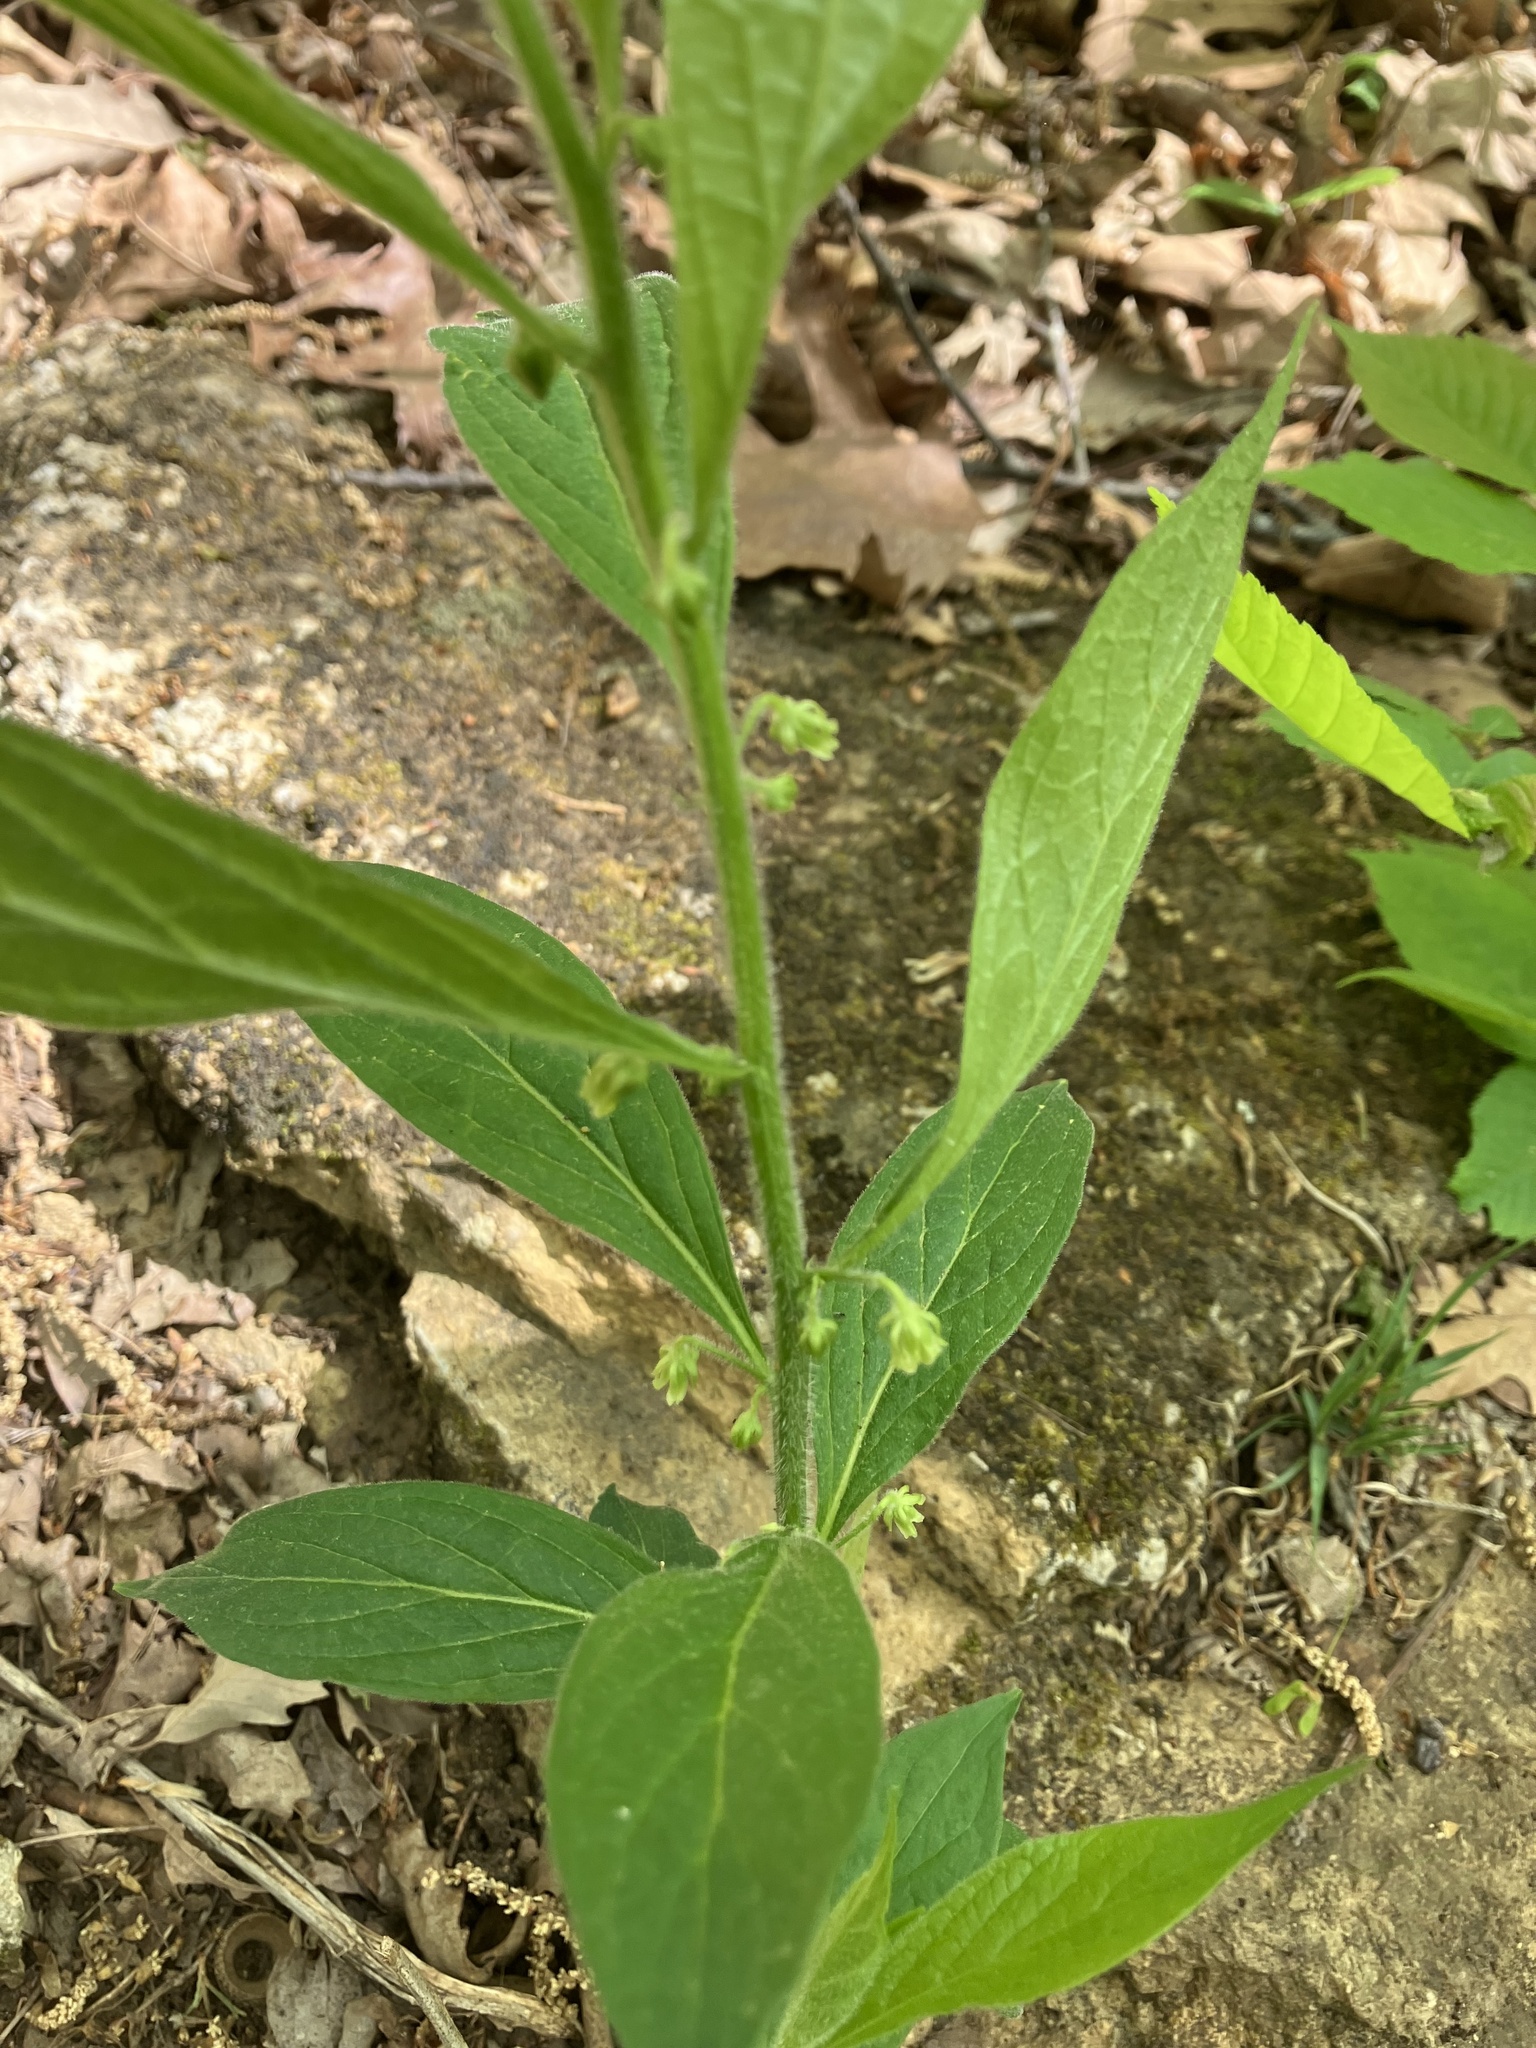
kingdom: Plantae
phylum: Tracheophyta
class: Magnoliopsida
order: Malpighiales
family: Violaceae
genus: Cubelium
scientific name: Cubelium concolor
